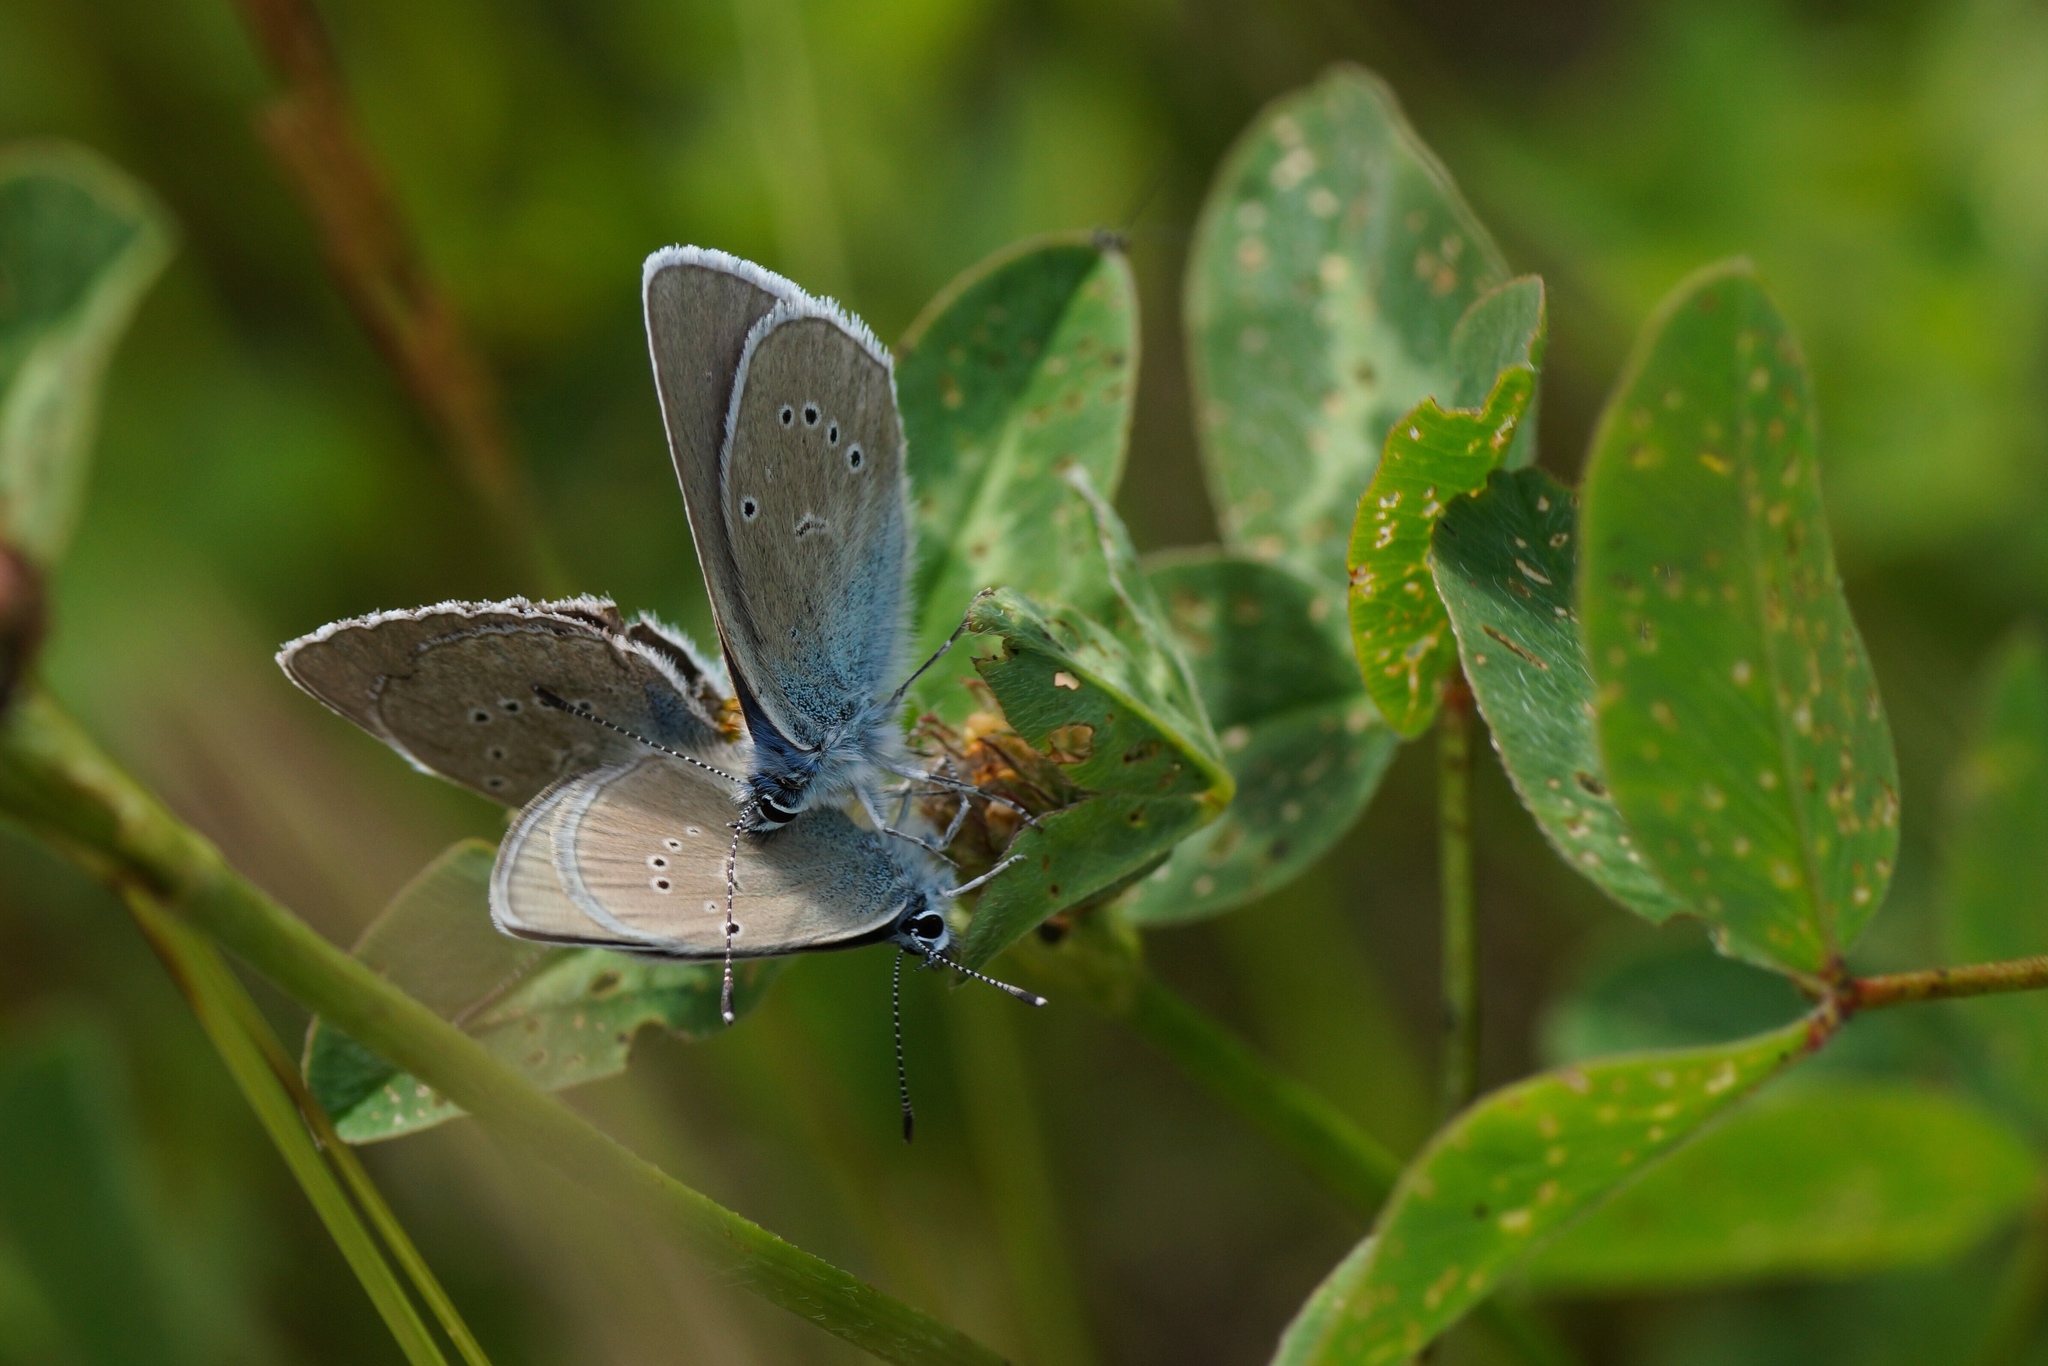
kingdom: Animalia
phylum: Arthropoda
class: Insecta
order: Lepidoptera
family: Lycaenidae
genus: Cyaniris
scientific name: Cyaniris semiargus
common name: Mazarine blue
